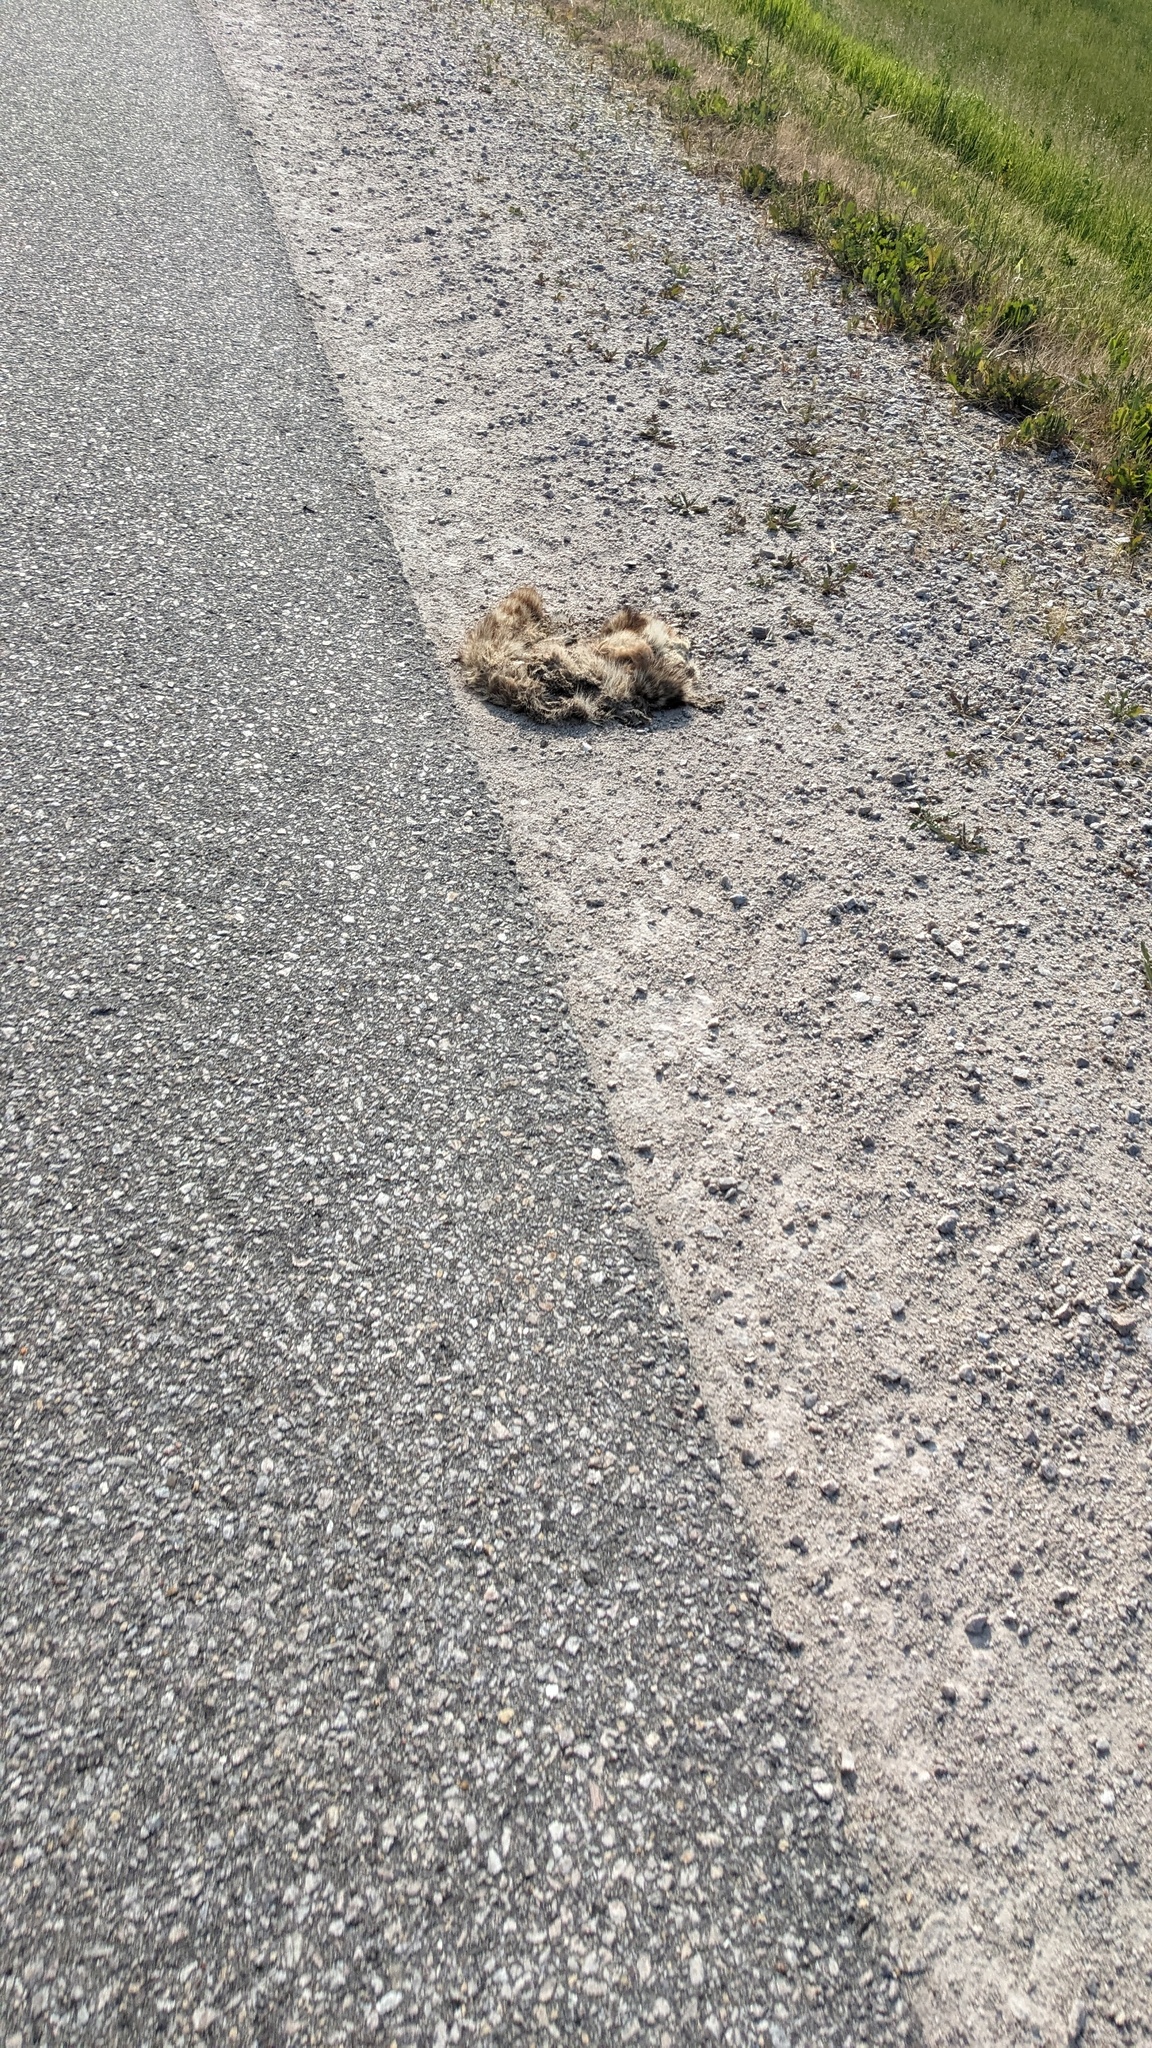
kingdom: Animalia
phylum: Chordata
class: Mammalia
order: Carnivora
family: Procyonidae
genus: Procyon
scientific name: Procyon lotor
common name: Raccoon
